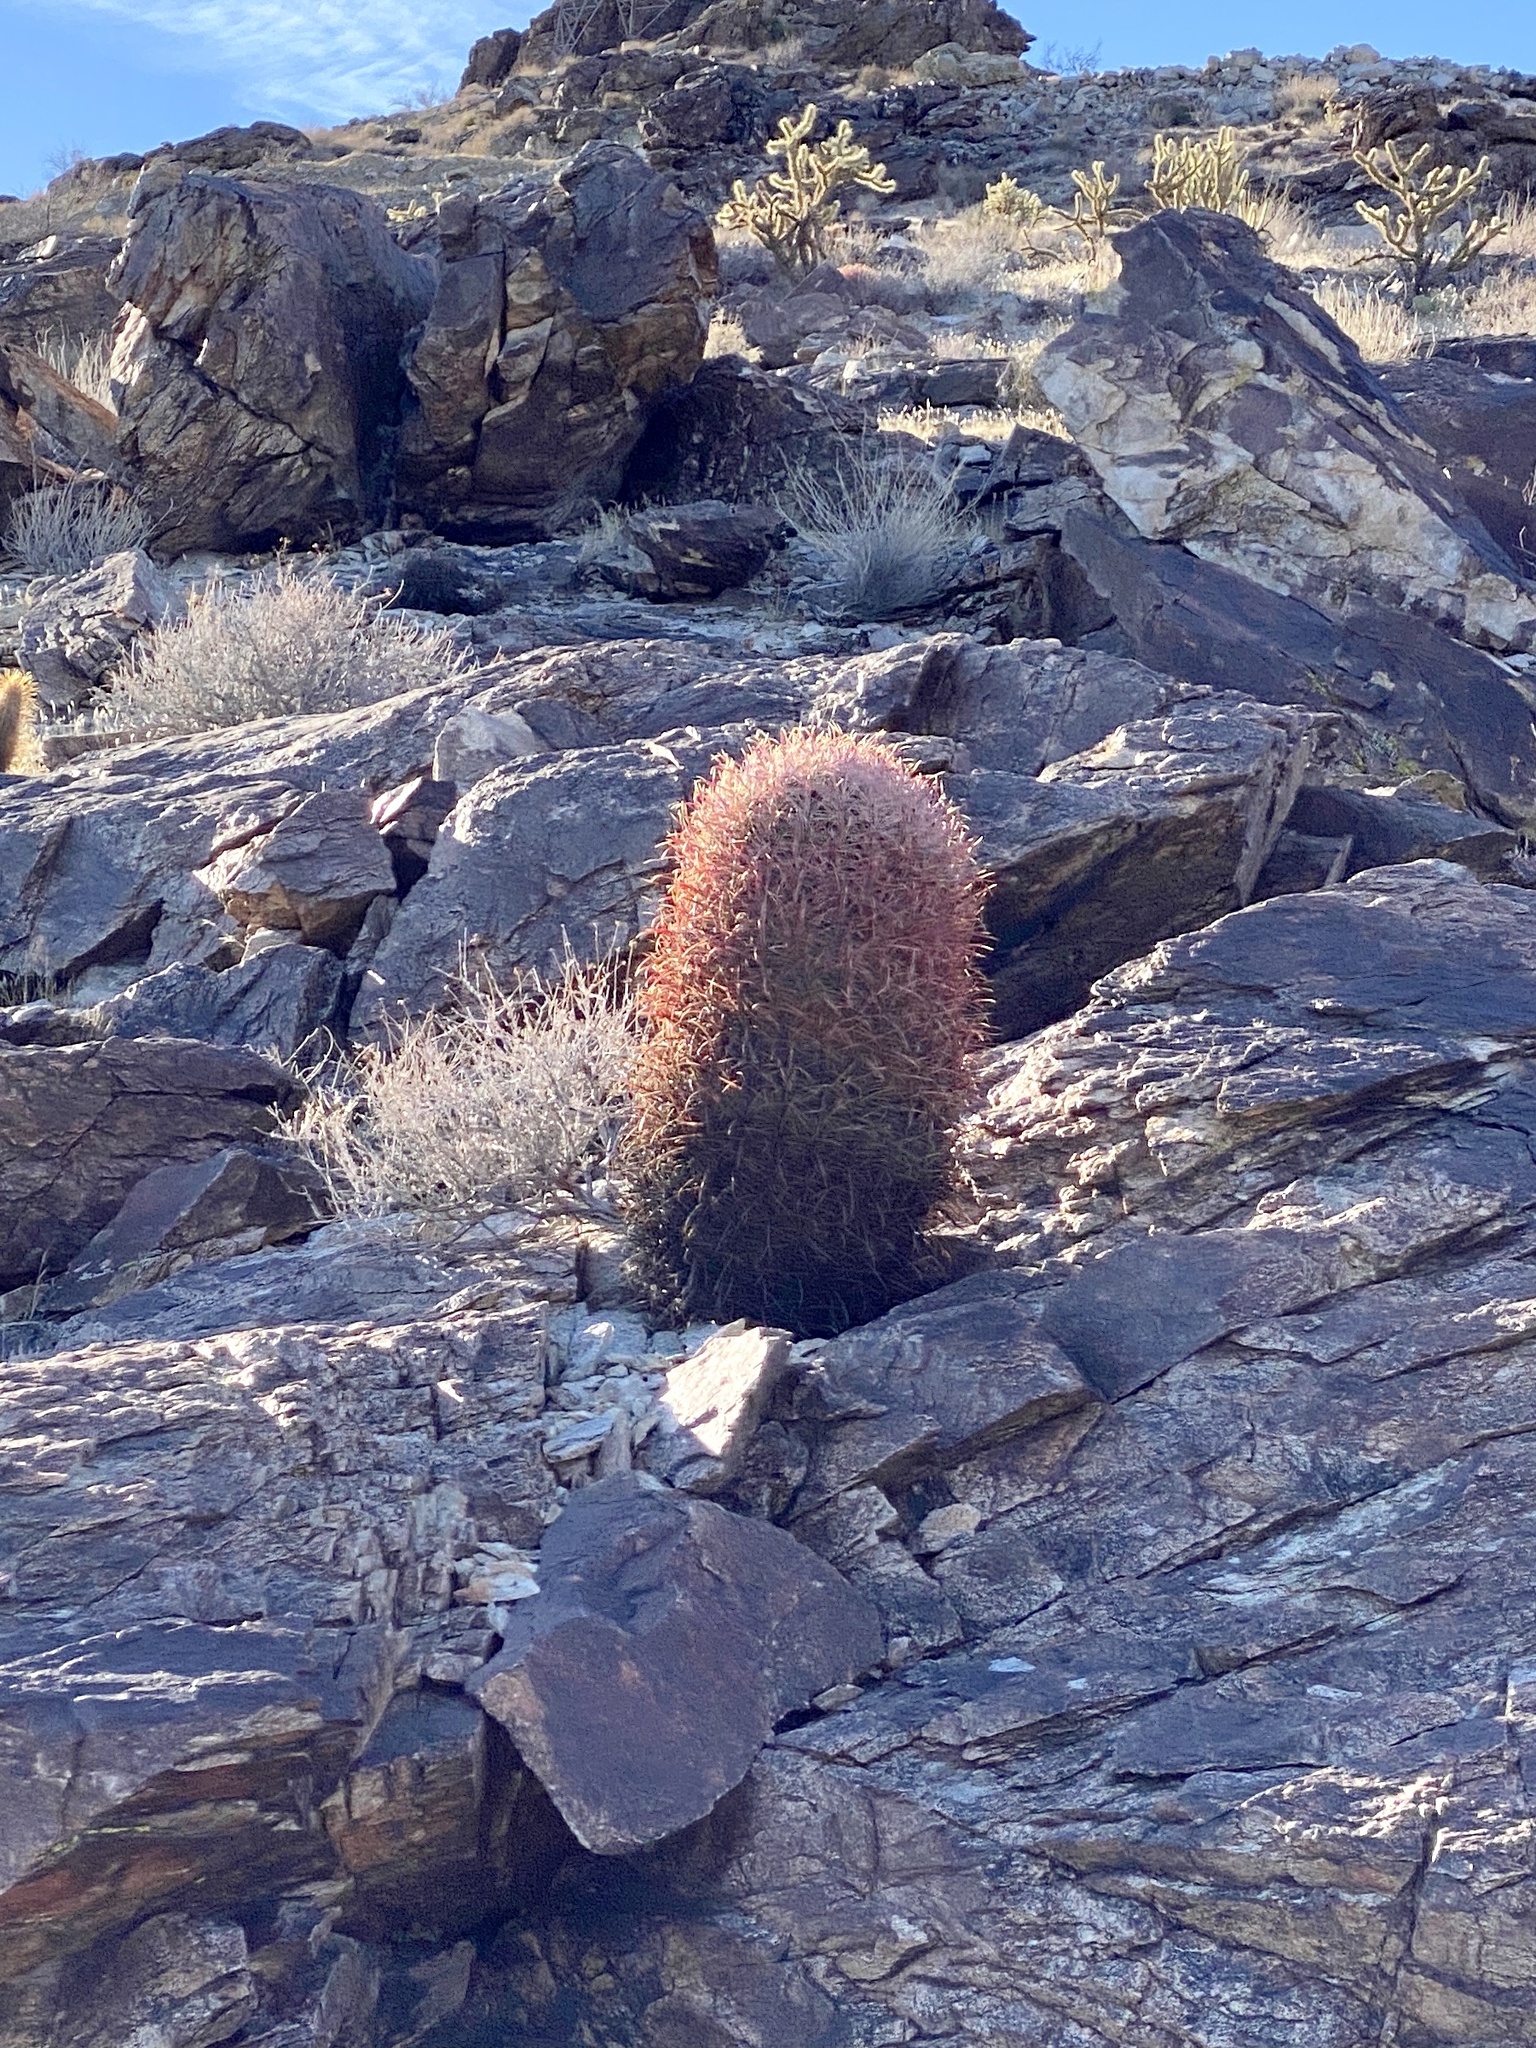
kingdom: Plantae
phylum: Tracheophyta
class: Magnoliopsida
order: Caryophyllales
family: Cactaceae
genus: Ferocactus
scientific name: Ferocactus cylindraceus
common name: California barrel cactus
